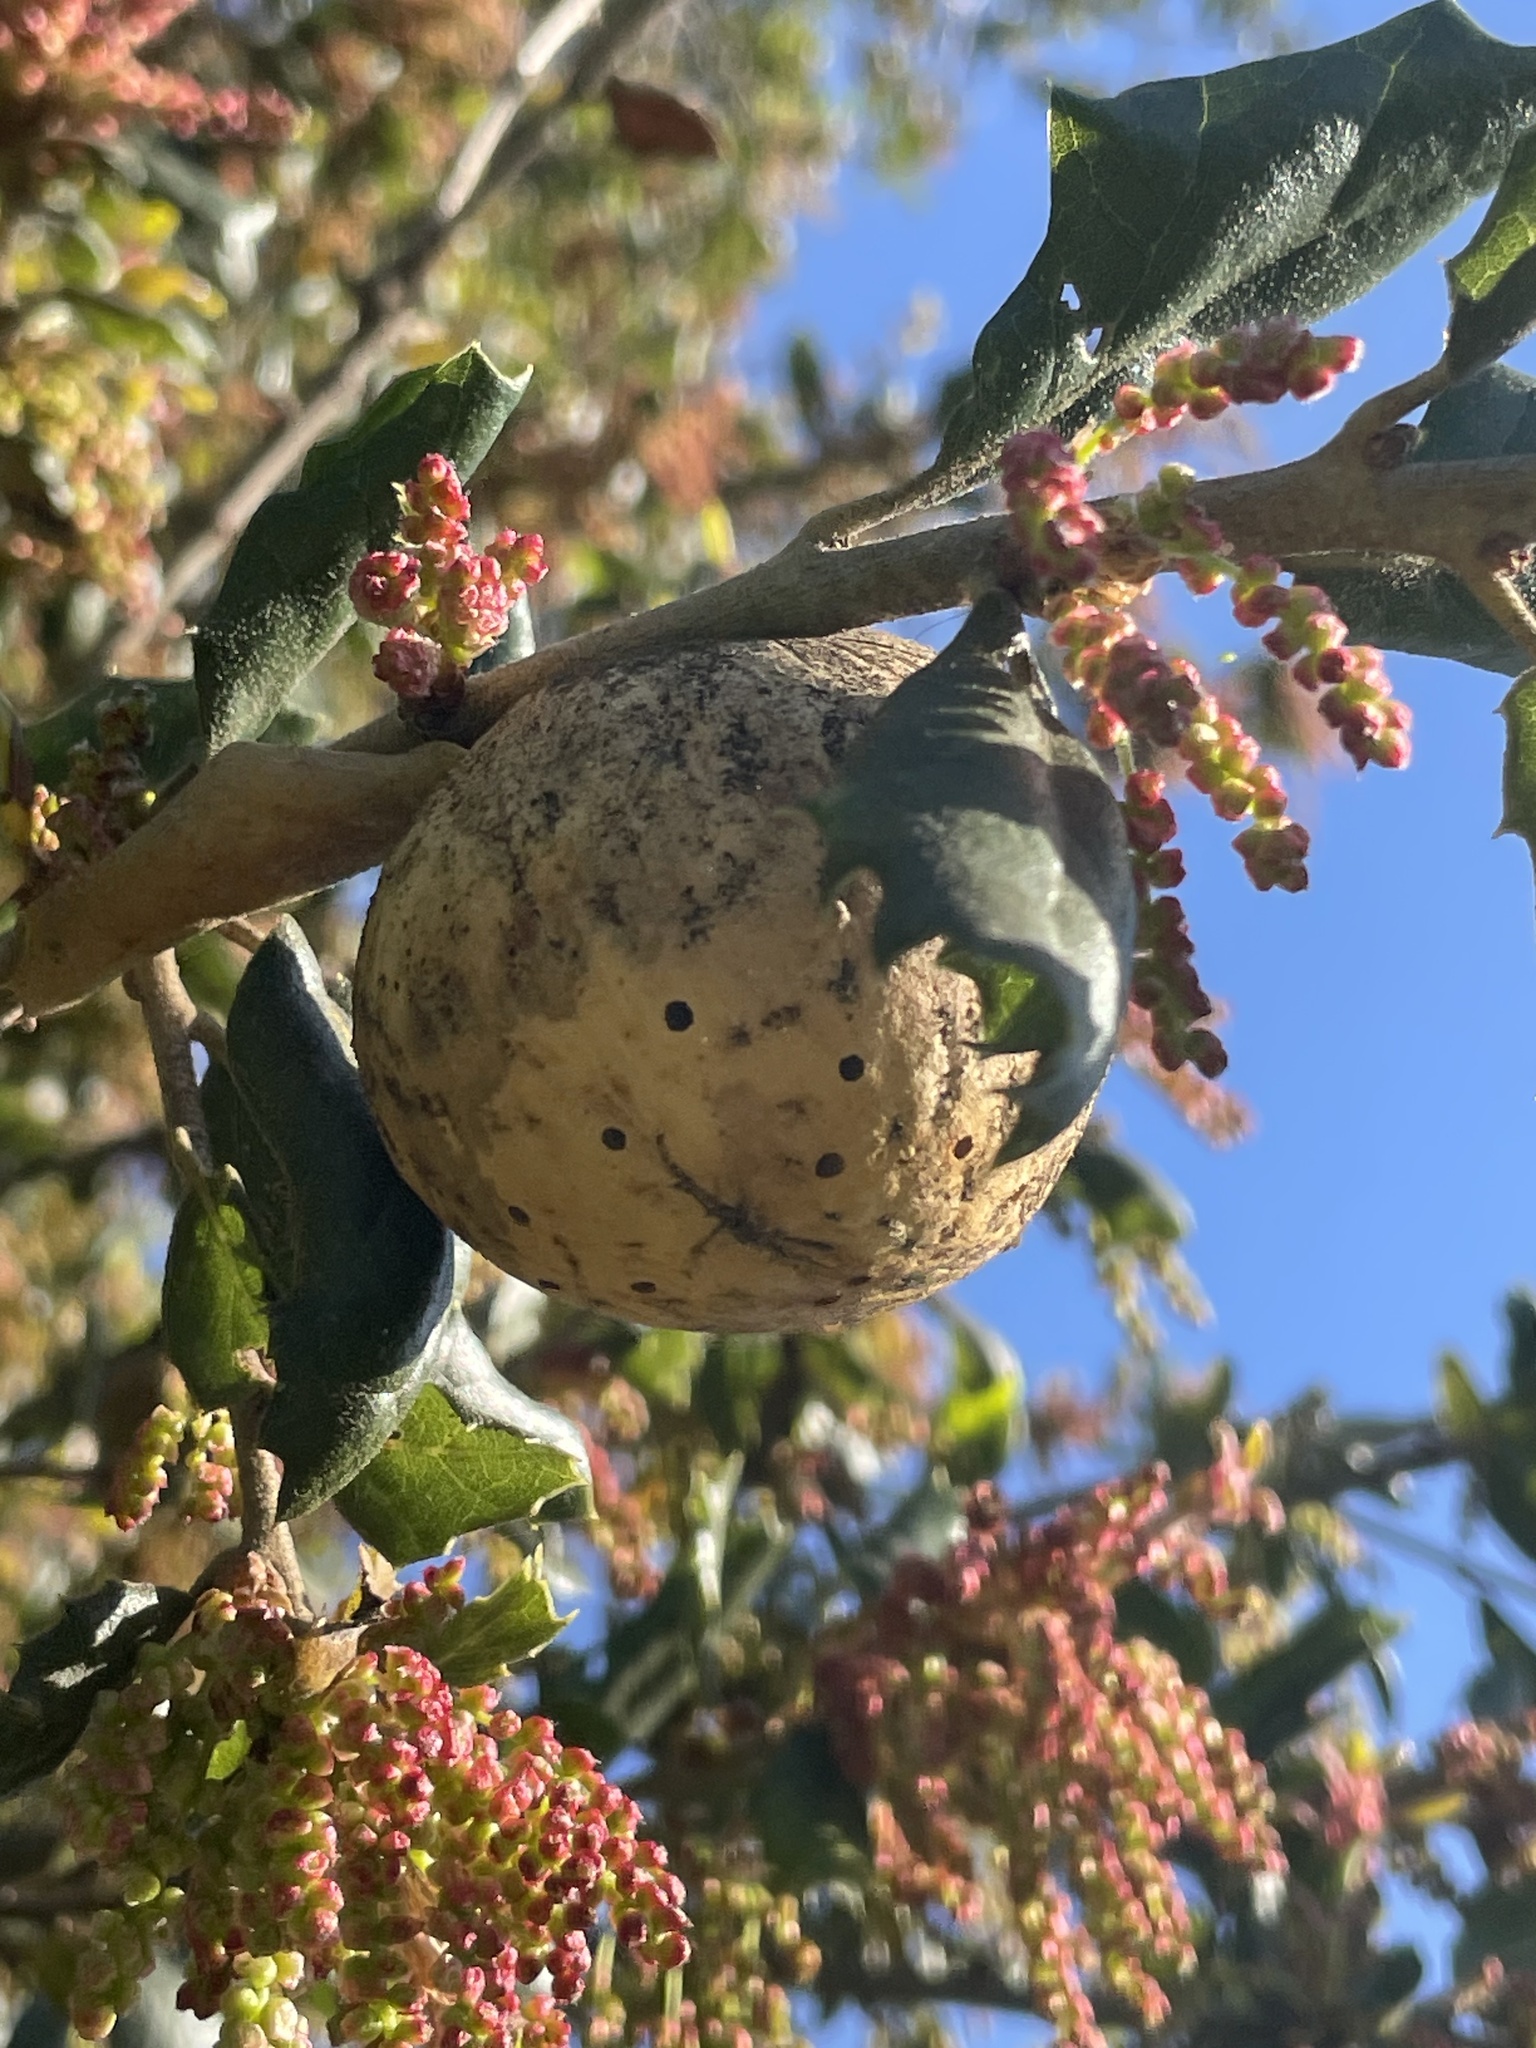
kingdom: Animalia
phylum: Arthropoda
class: Insecta
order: Hymenoptera
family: Cynipidae
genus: Amphibolips
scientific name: Amphibolips quercuspomiformis
